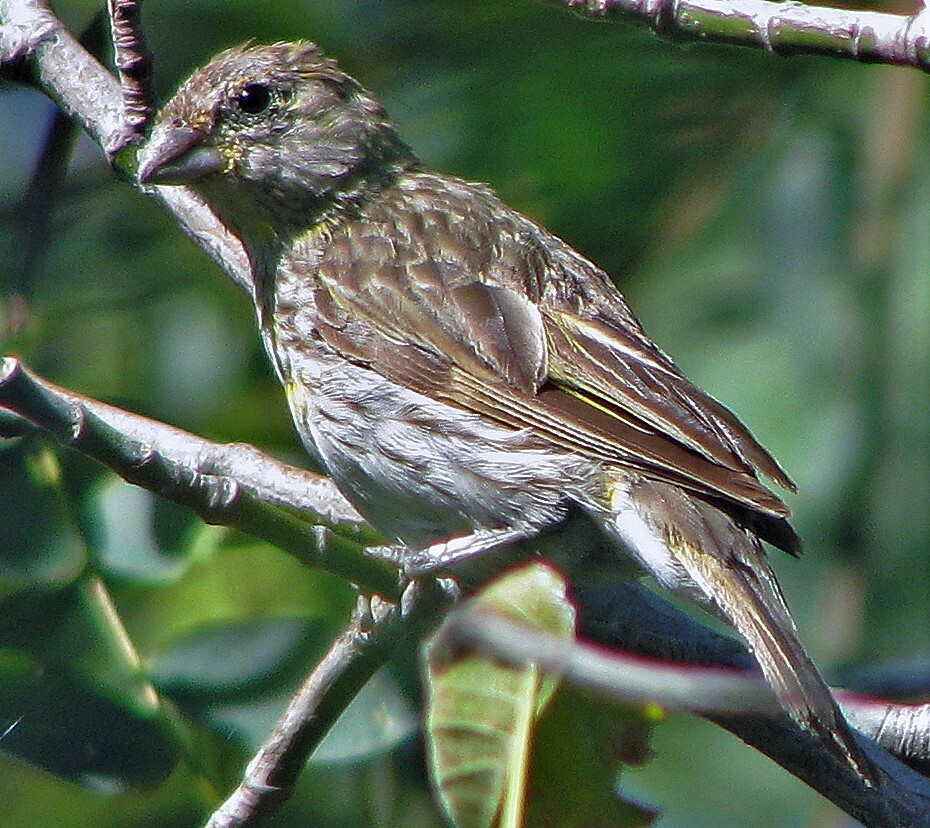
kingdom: Animalia
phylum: Chordata
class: Aves
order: Passeriformes
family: Thraupidae
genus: Sicalis
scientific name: Sicalis flaveola
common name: Saffron finch
